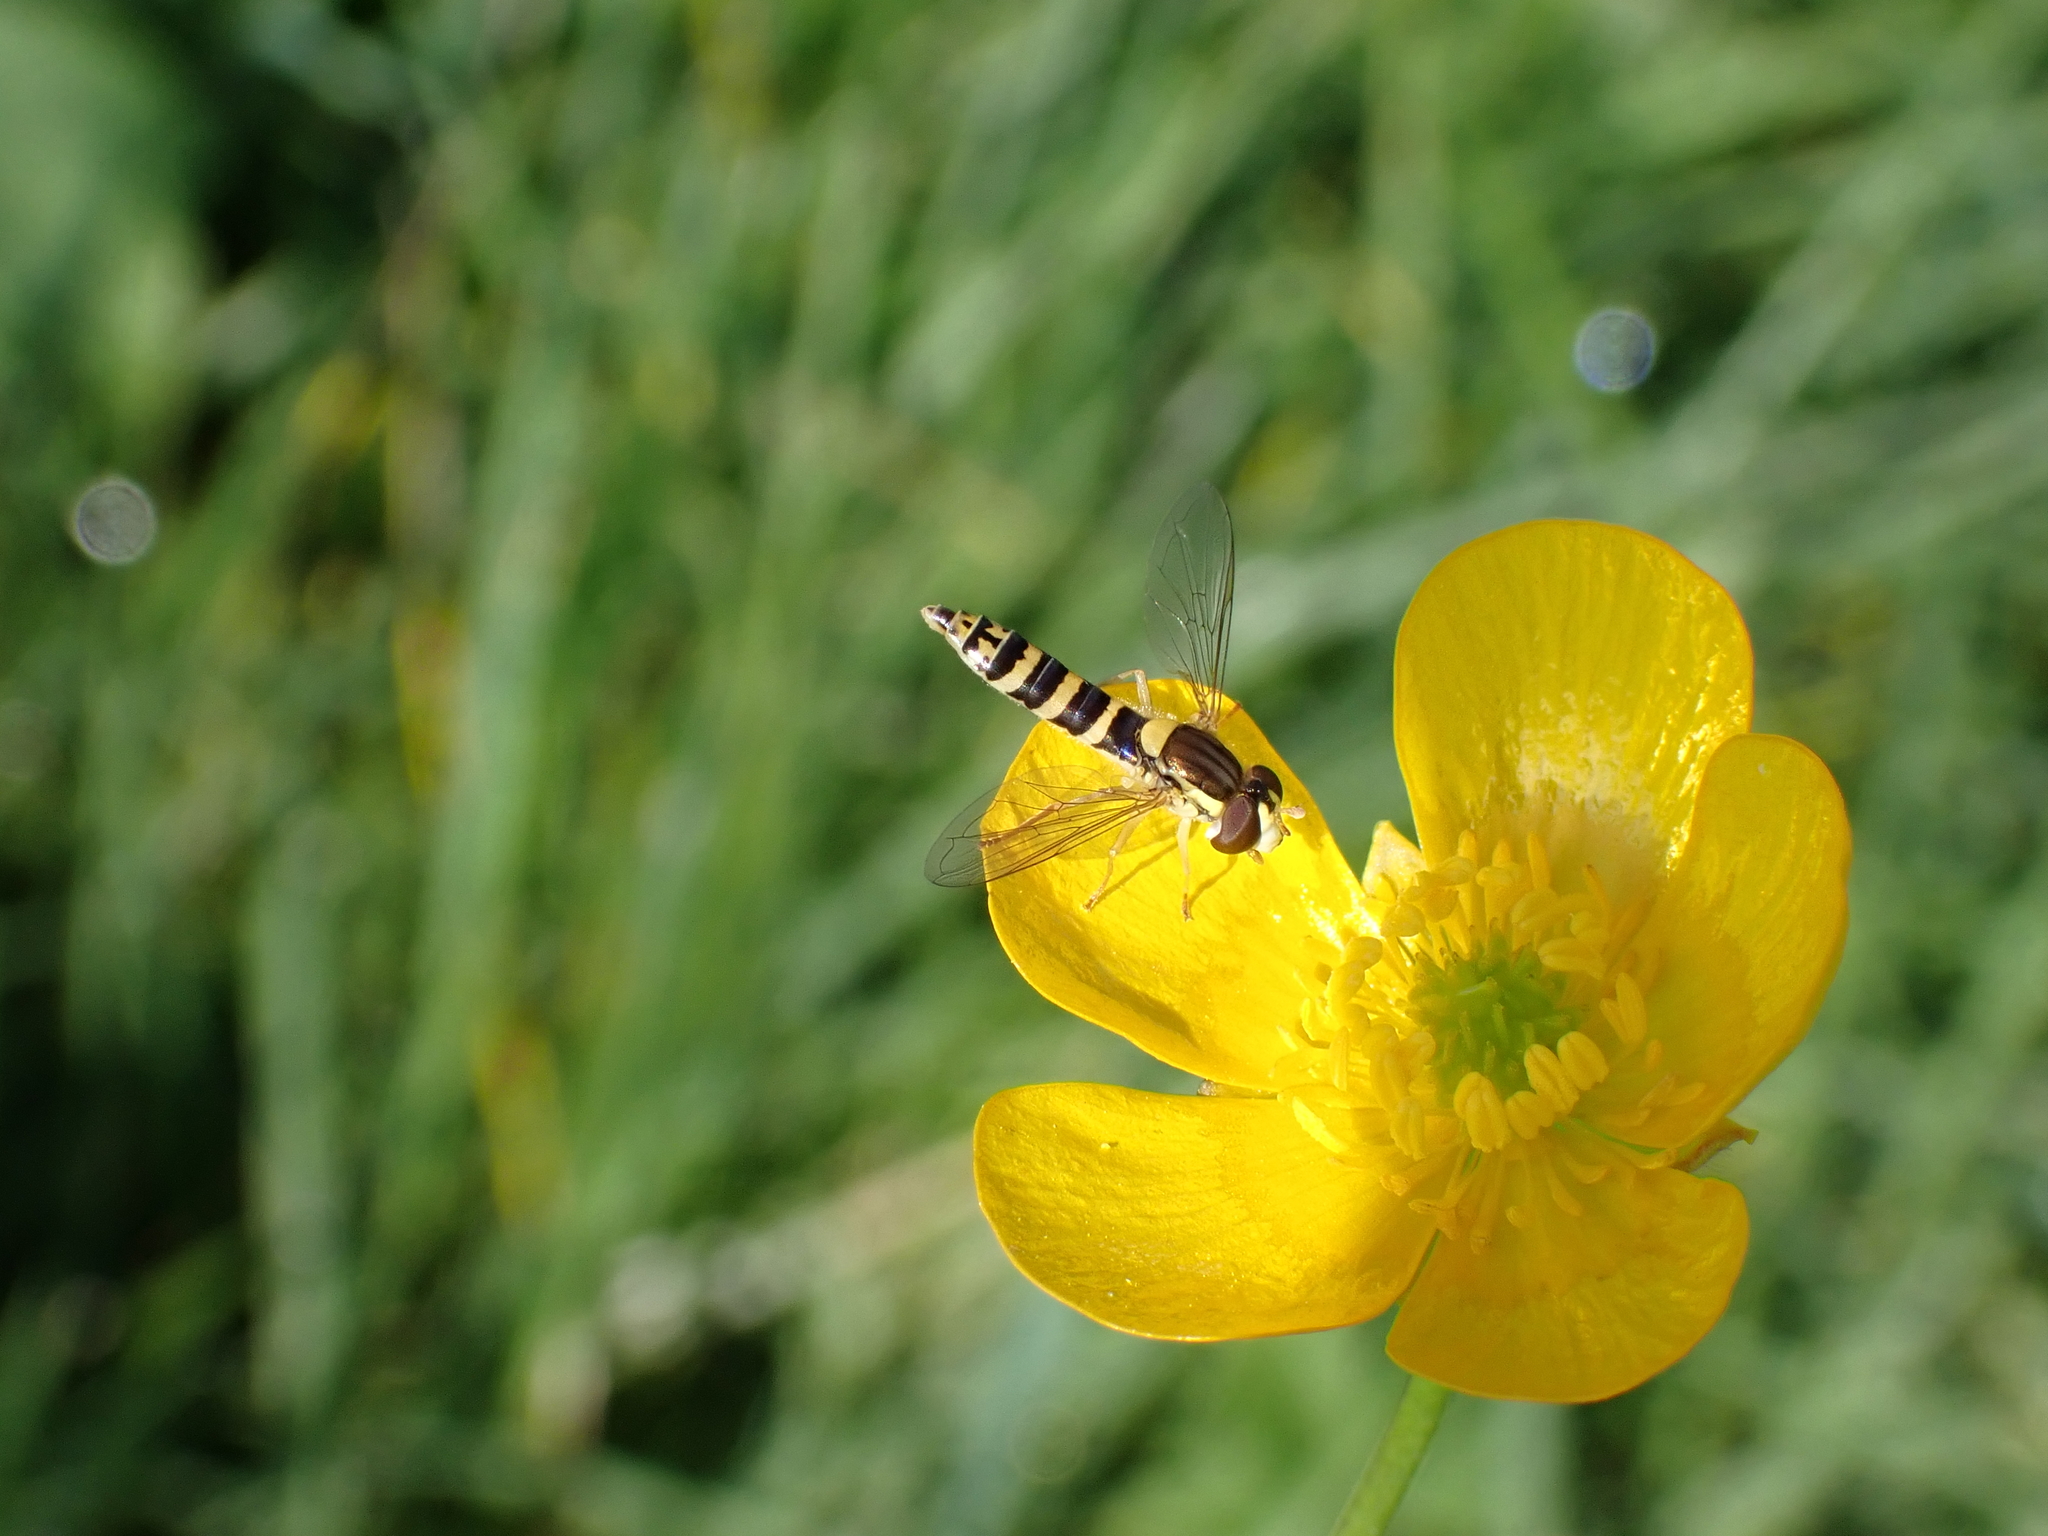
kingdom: Animalia
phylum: Arthropoda
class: Insecta
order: Diptera
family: Syrphidae
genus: Sphaerophoria
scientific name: Sphaerophoria scripta
